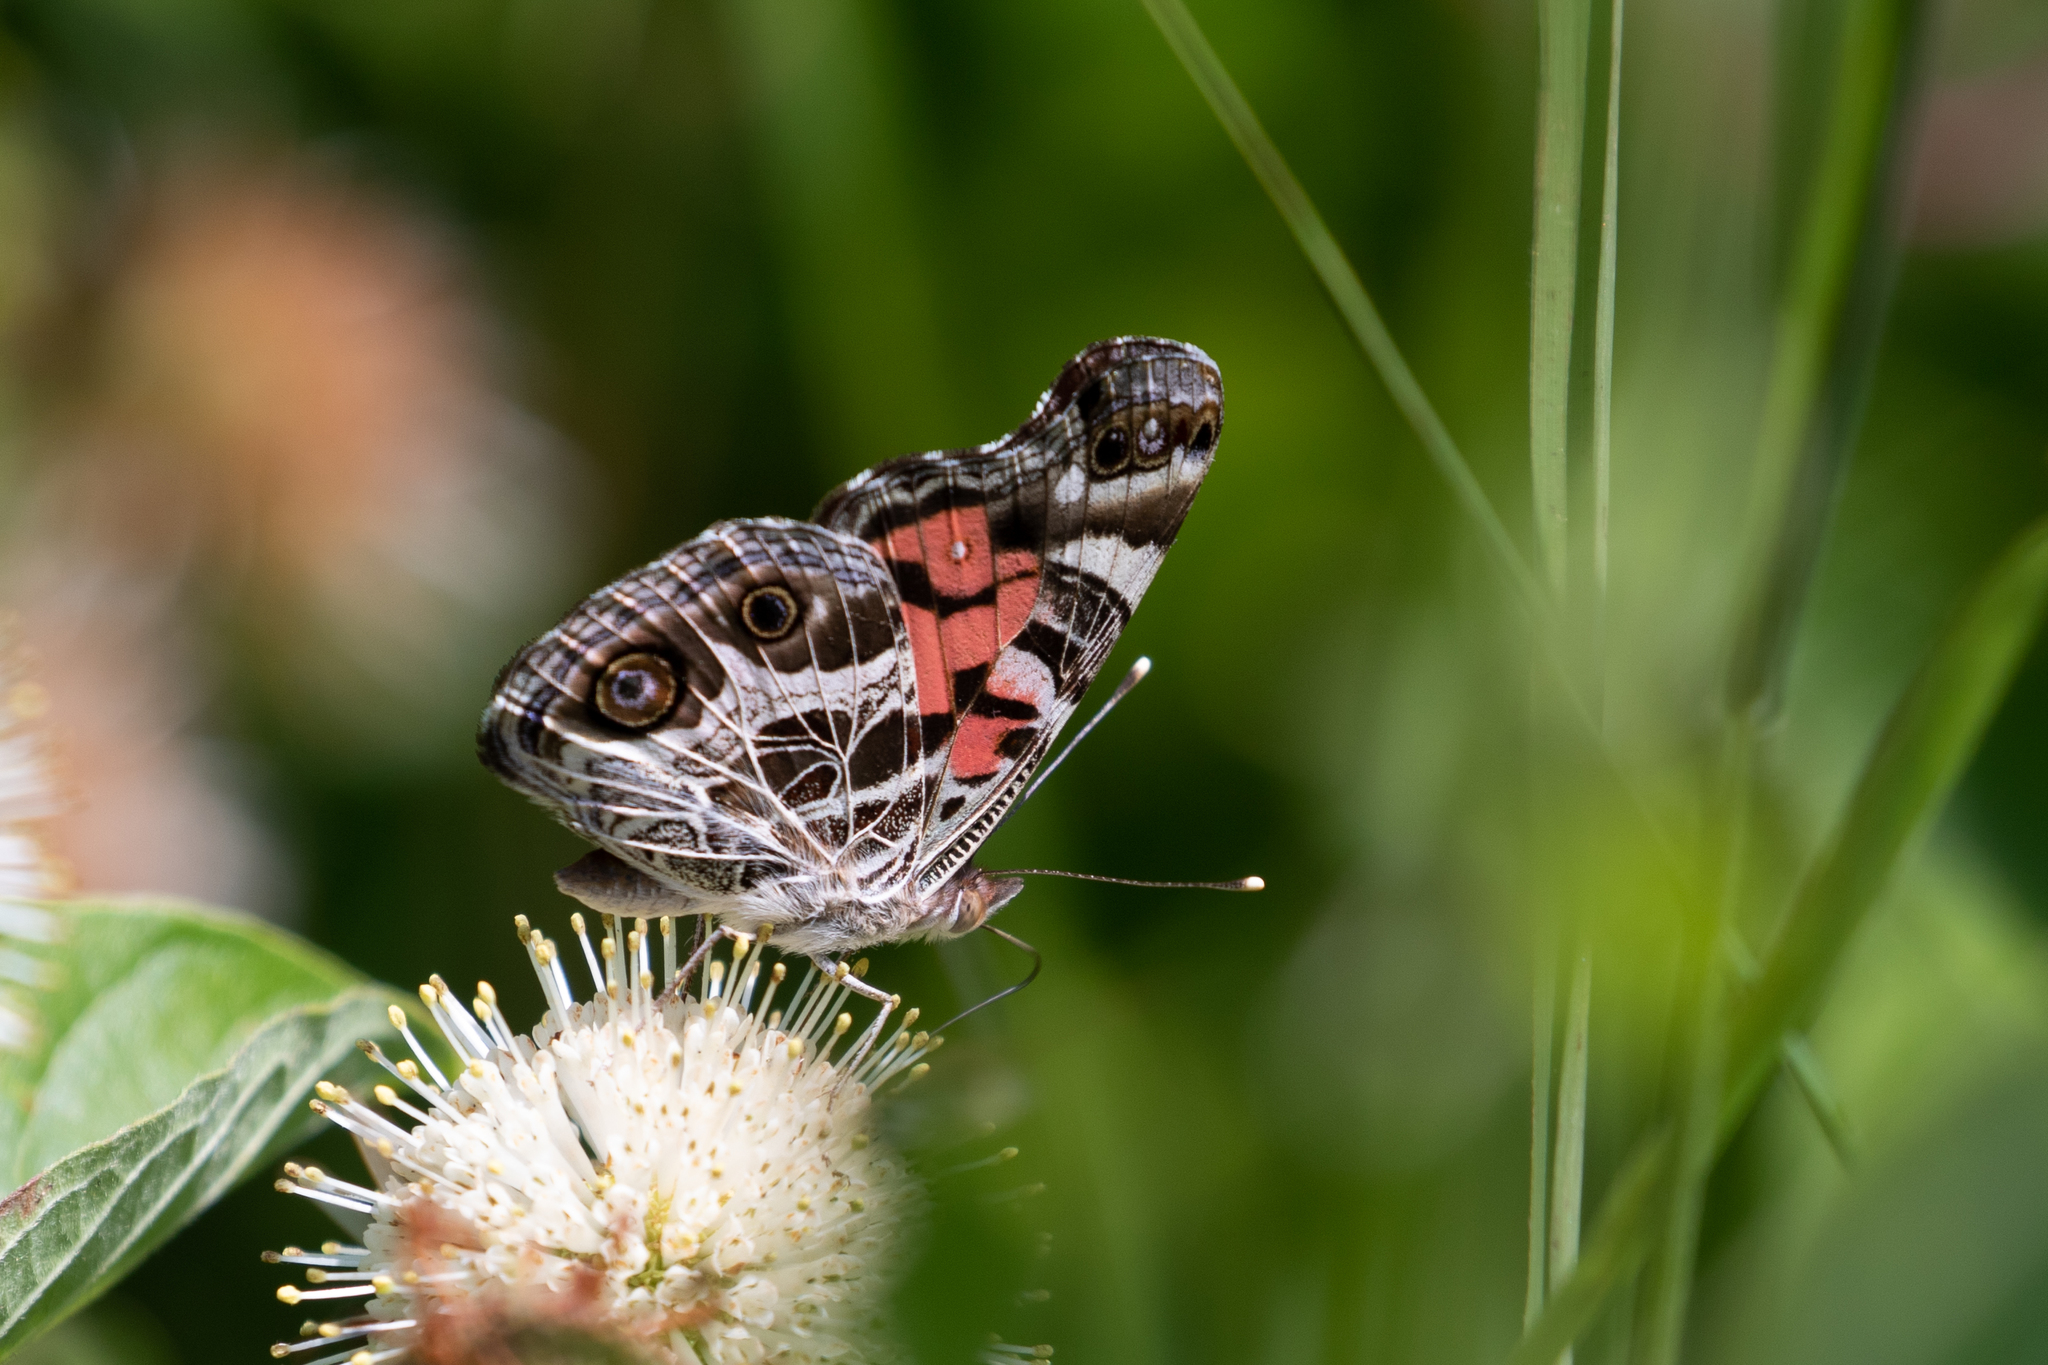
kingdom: Animalia
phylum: Arthropoda
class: Insecta
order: Lepidoptera
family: Nymphalidae
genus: Vanessa
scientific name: Vanessa virginiensis
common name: American lady
